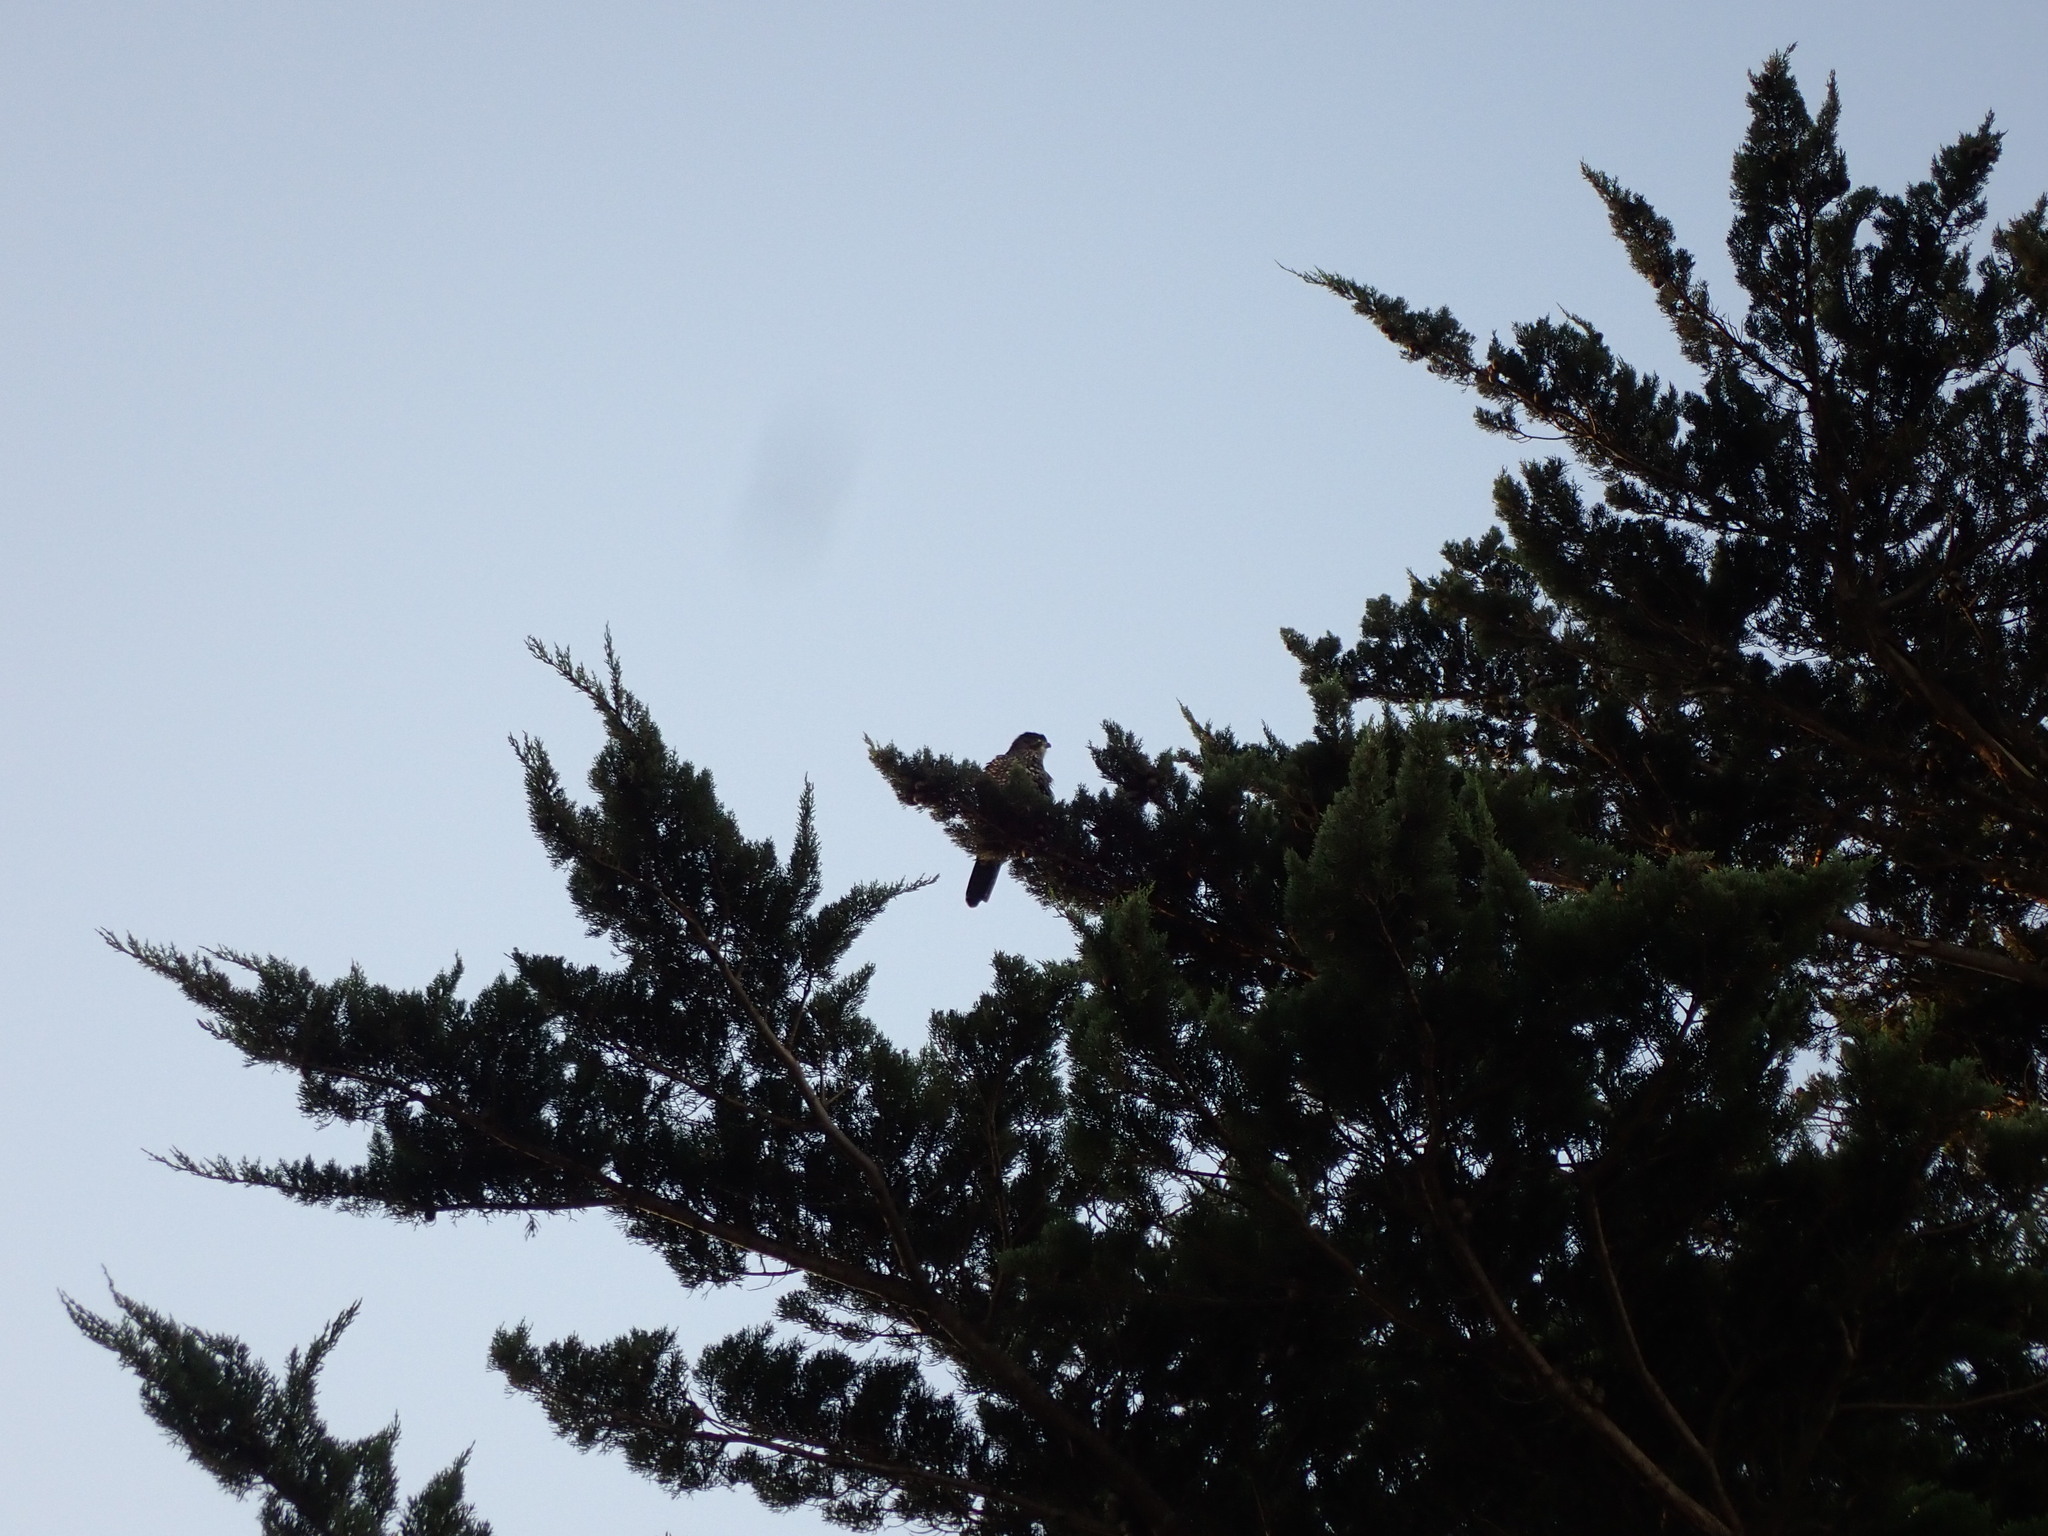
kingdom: Animalia
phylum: Chordata
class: Aves
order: Falconiformes
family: Falconidae
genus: Falco
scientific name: Falco novaeseelandiae
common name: New zealand falcon
